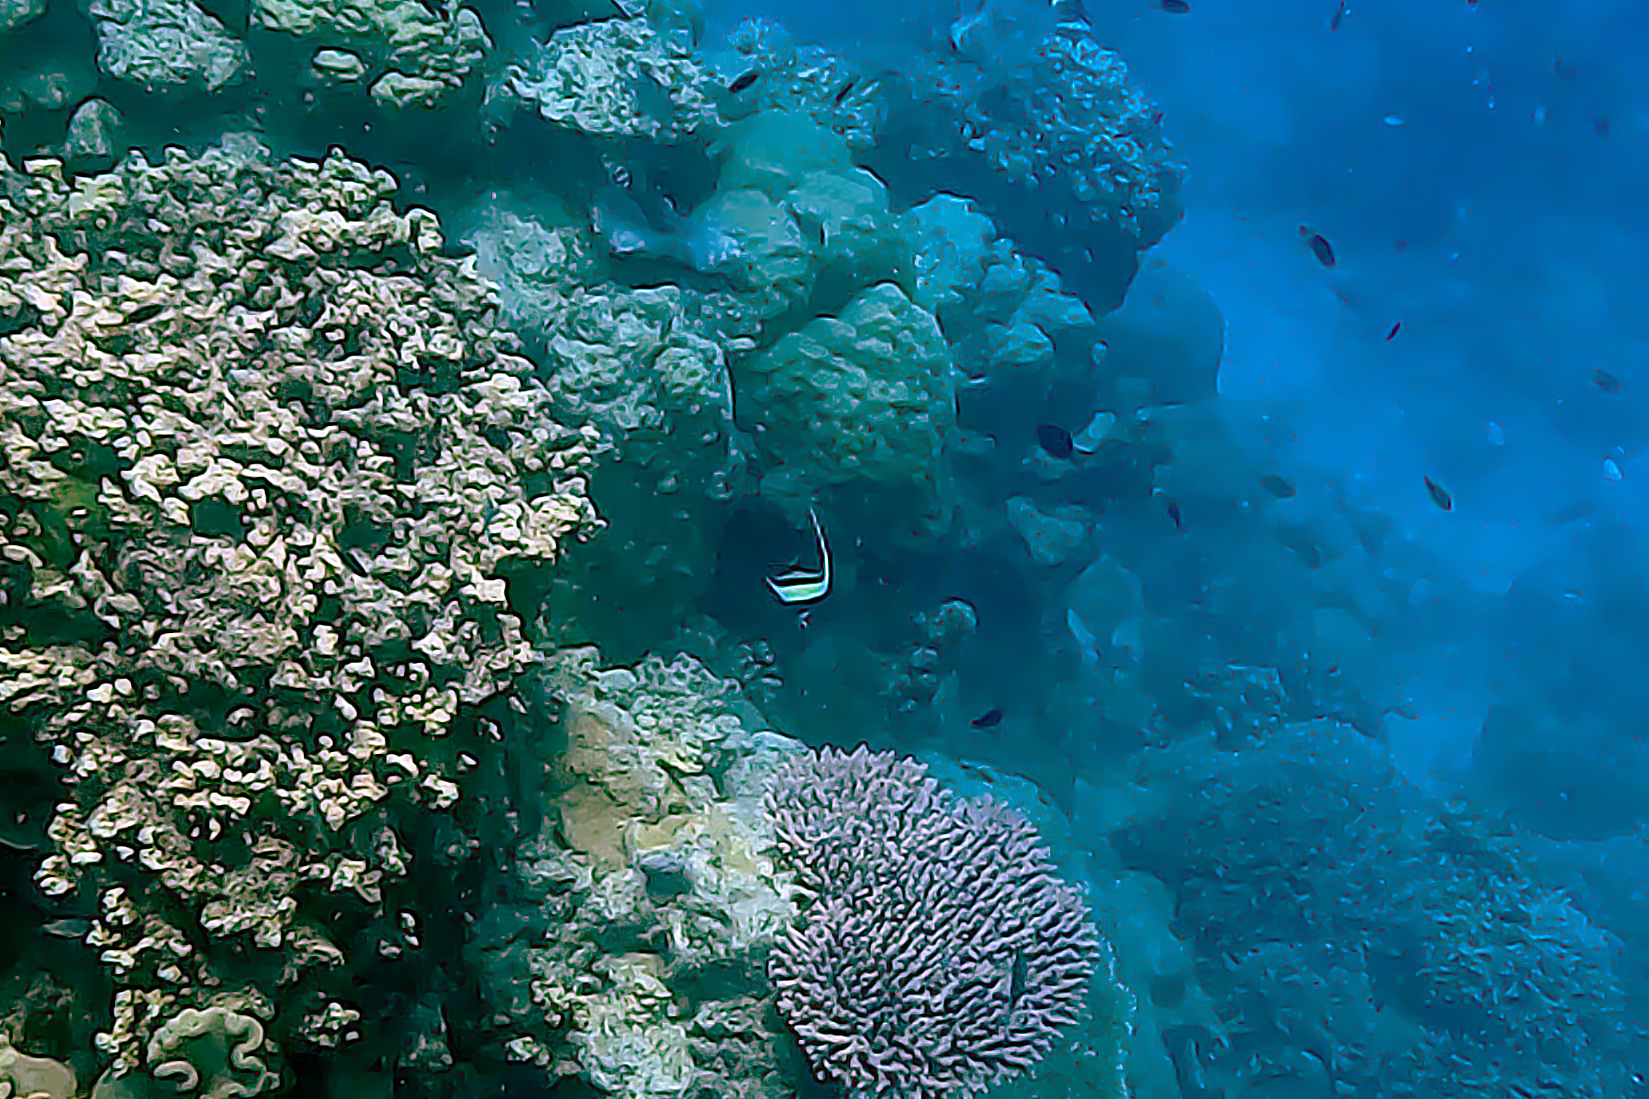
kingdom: Animalia
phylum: Chordata
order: Perciformes
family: Zanclidae
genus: Zanclus
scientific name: Zanclus cornutus
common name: Moorish idol
